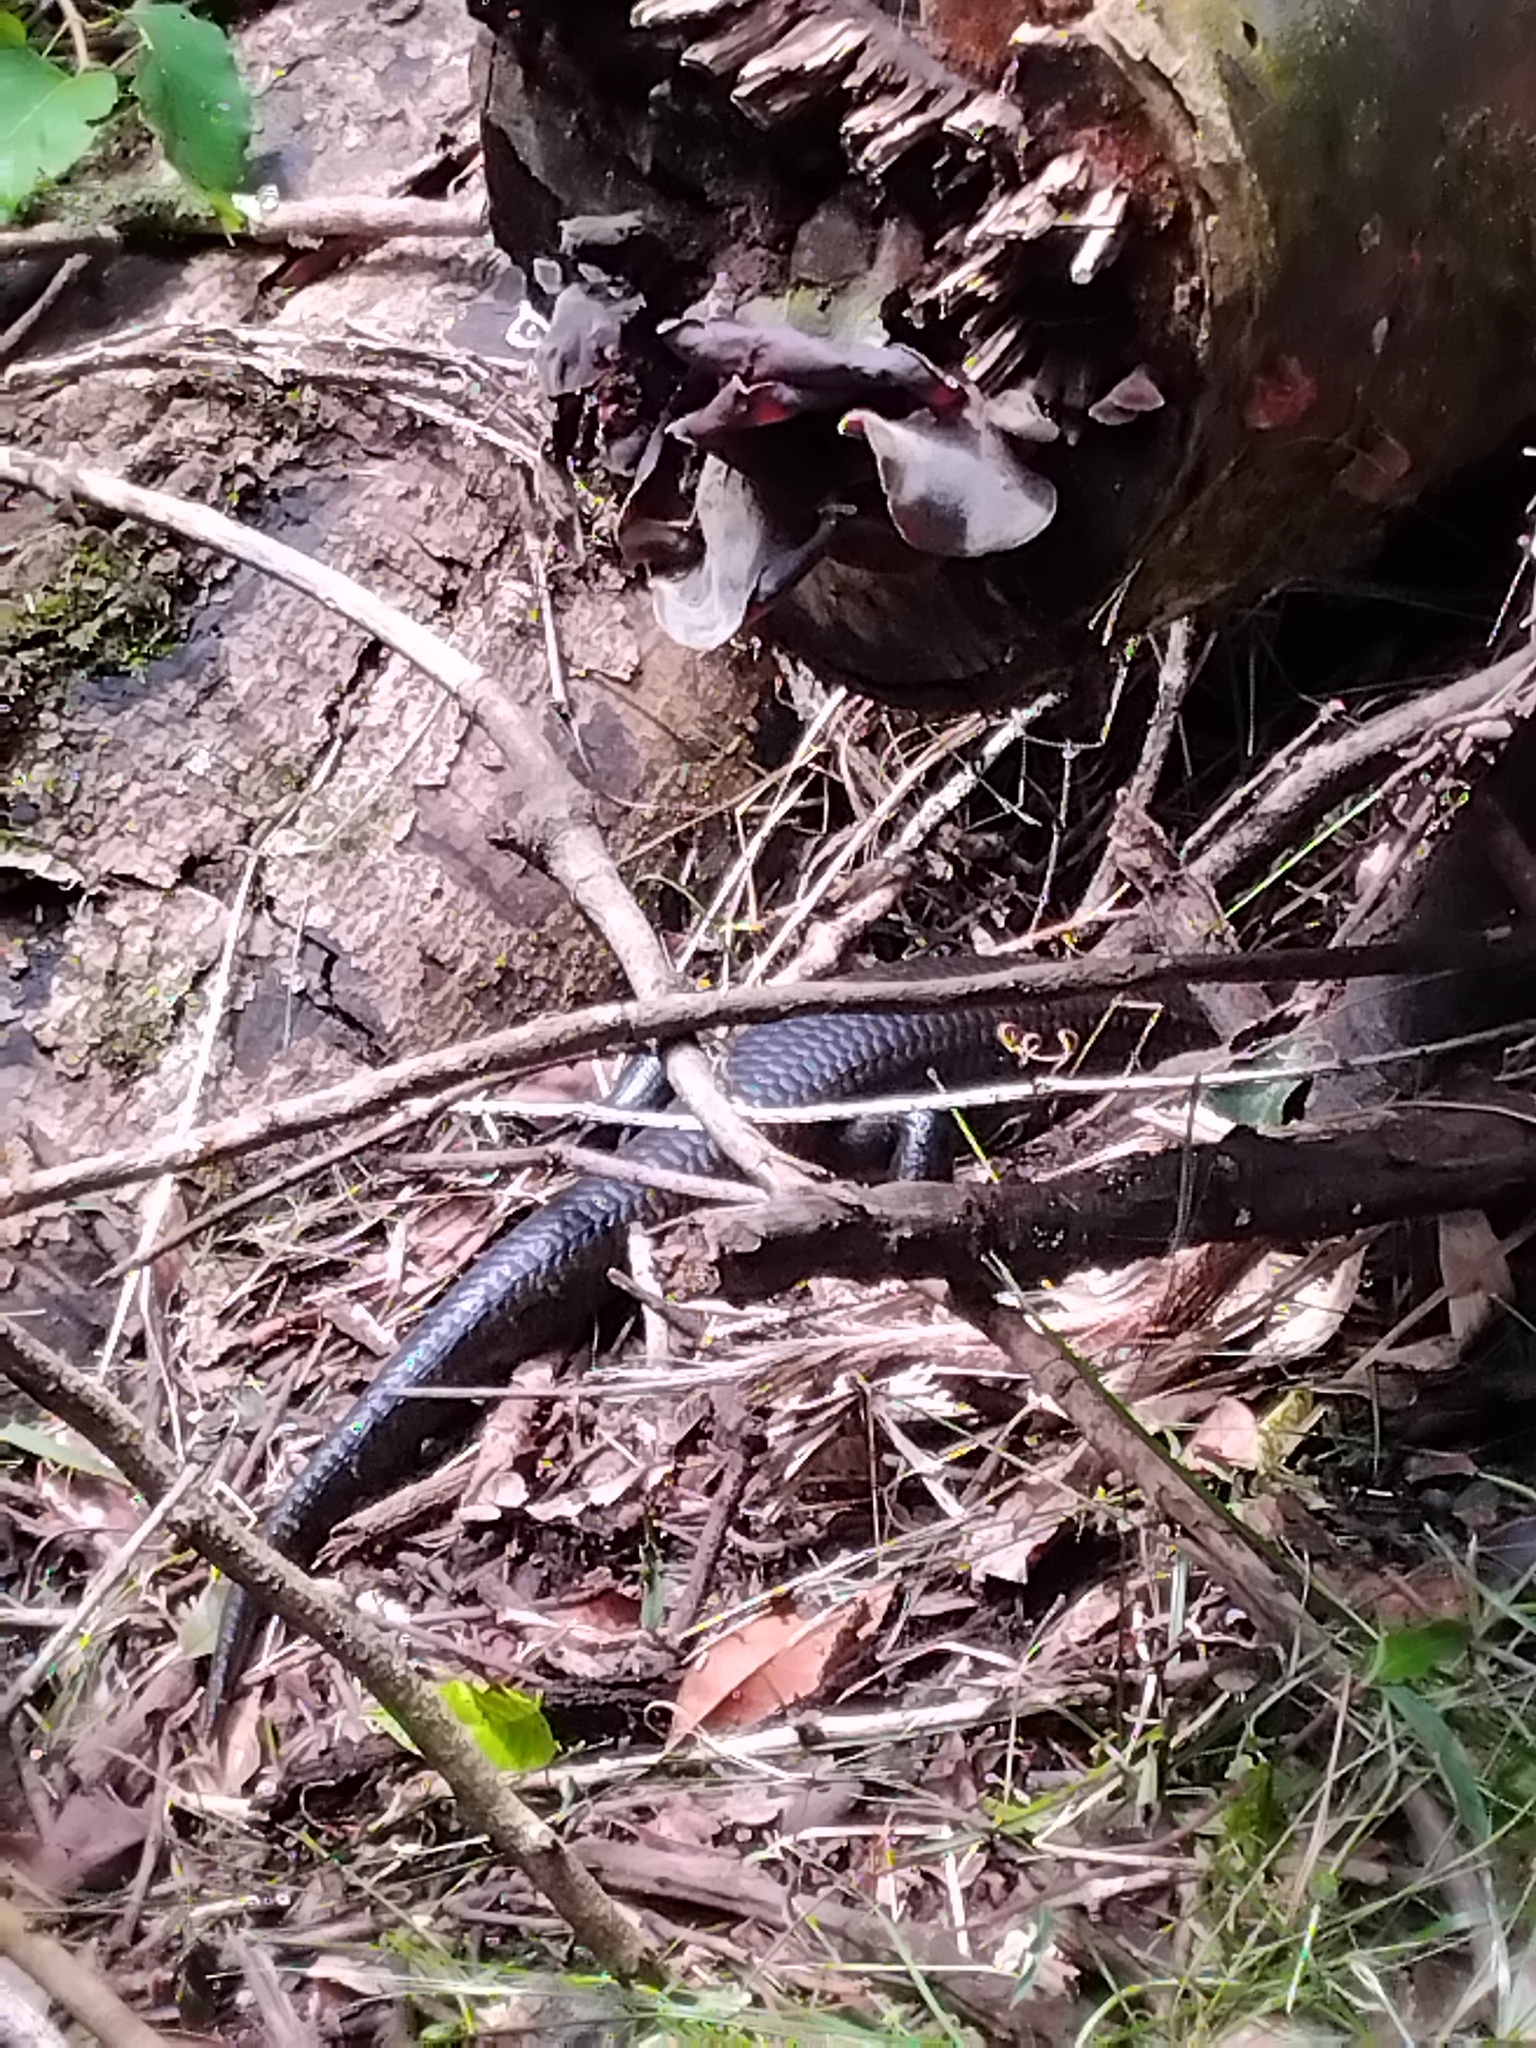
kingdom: Animalia
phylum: Chordata
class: Squamata
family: Scincidae
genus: Bellatorias
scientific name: Bellatorias major
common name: Land mullet
